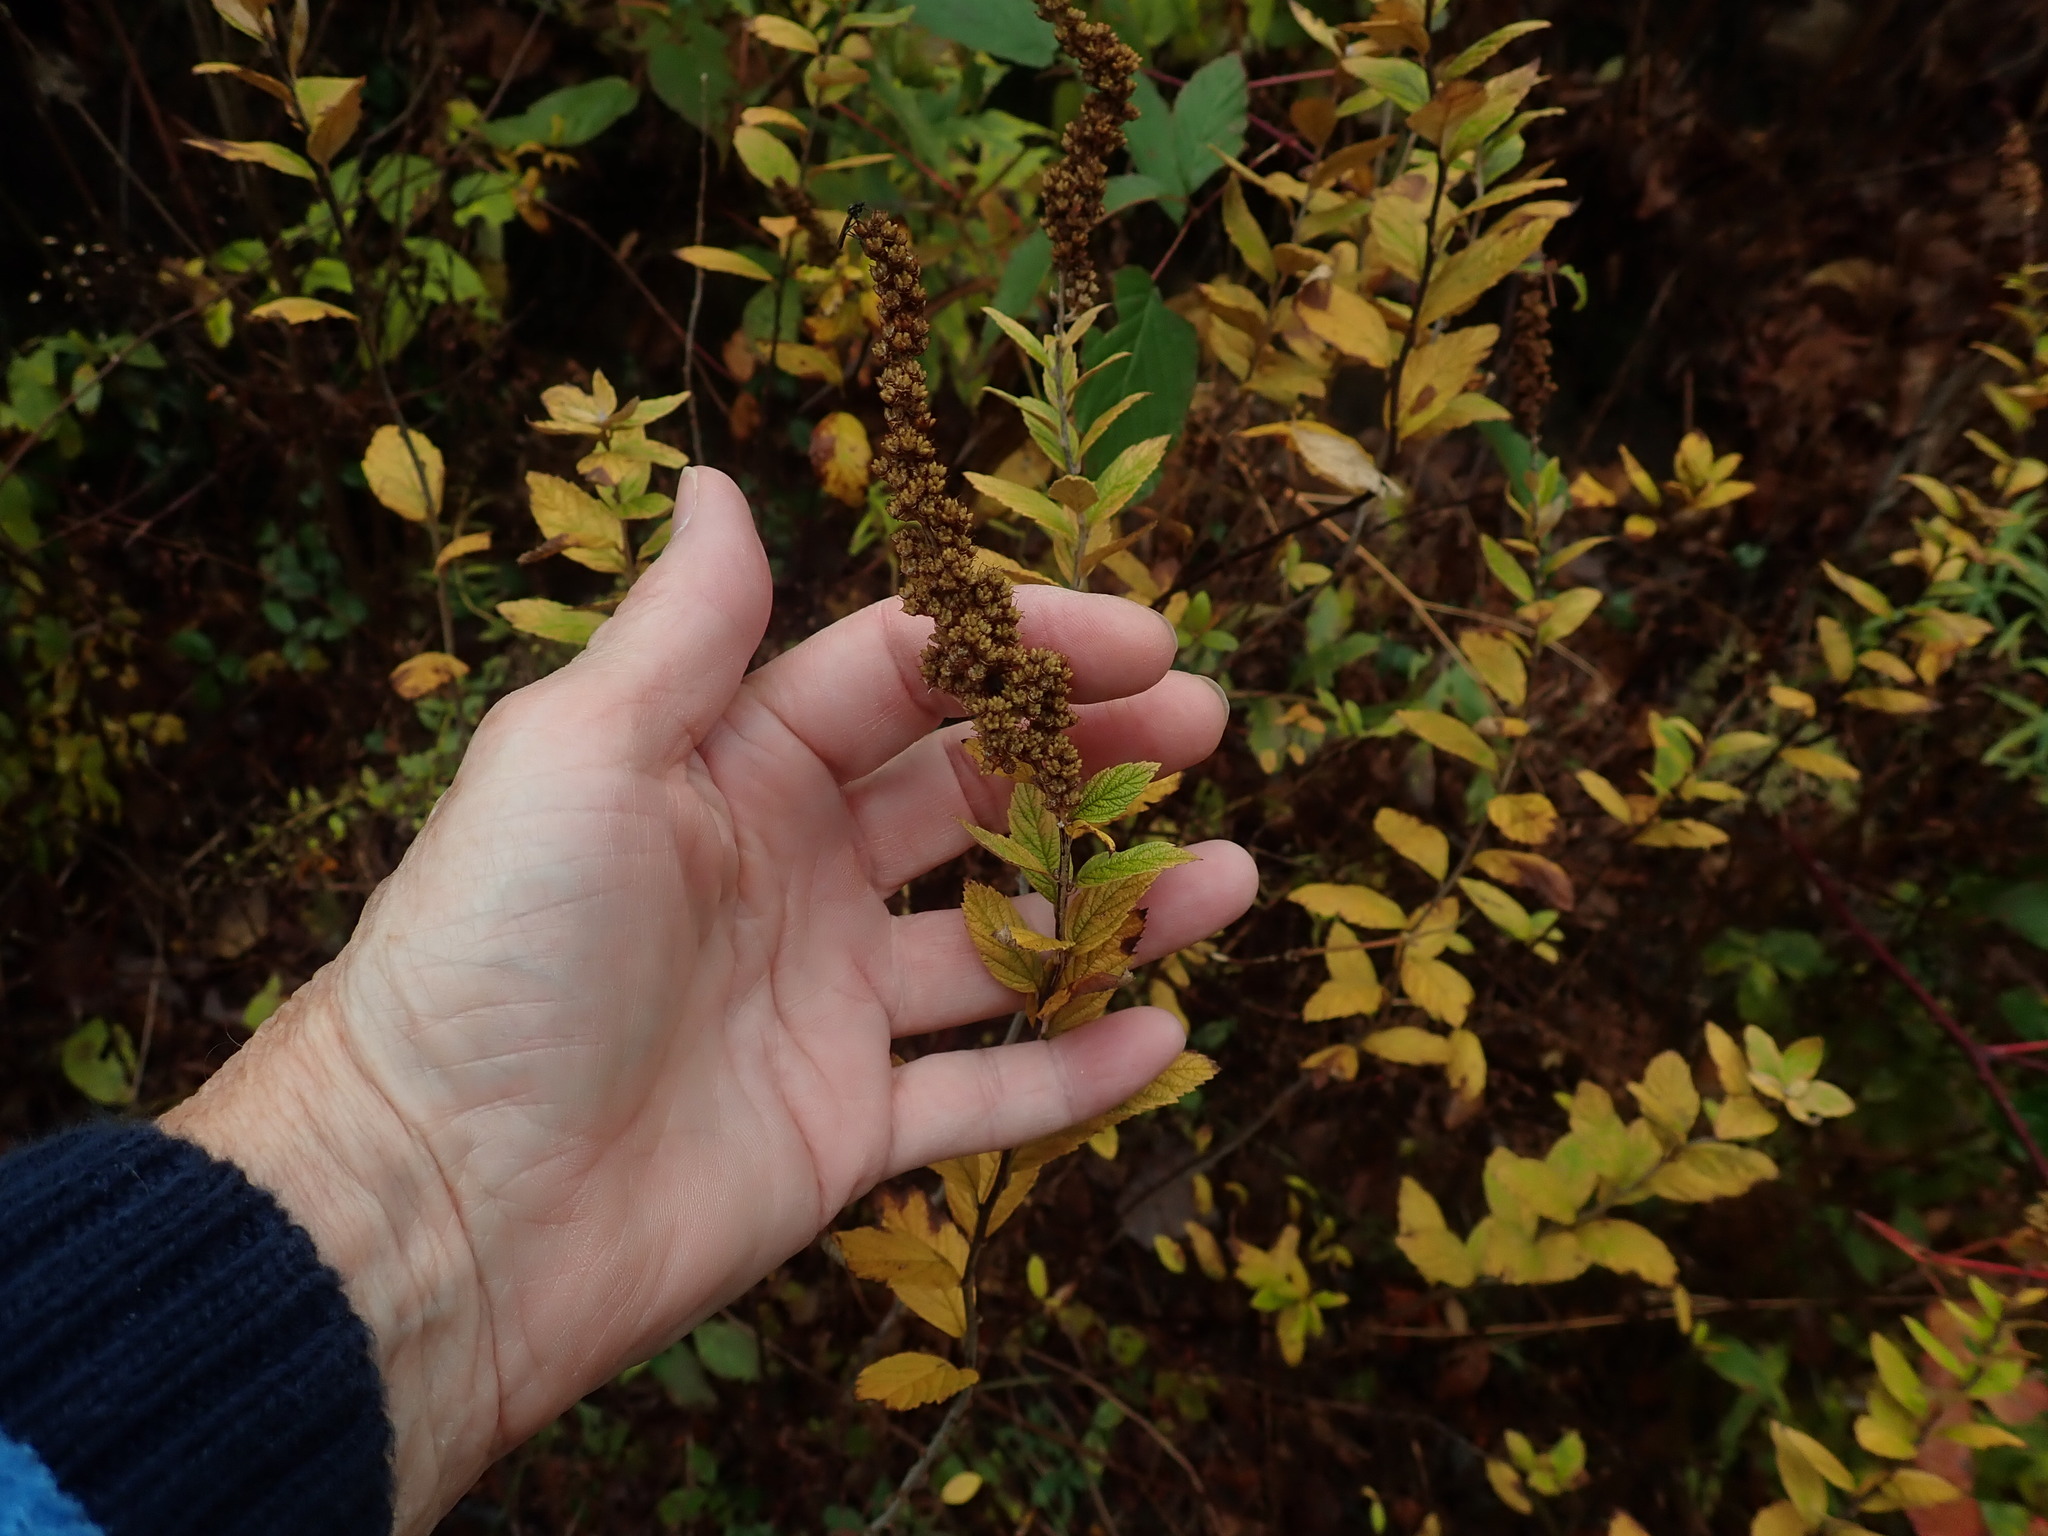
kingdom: Plantae
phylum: Tracheophyta
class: Magnoliopsida
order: Rosales
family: Rosaceae
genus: Spiraea
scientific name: Spiraea tomentosa
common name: Hardhack
